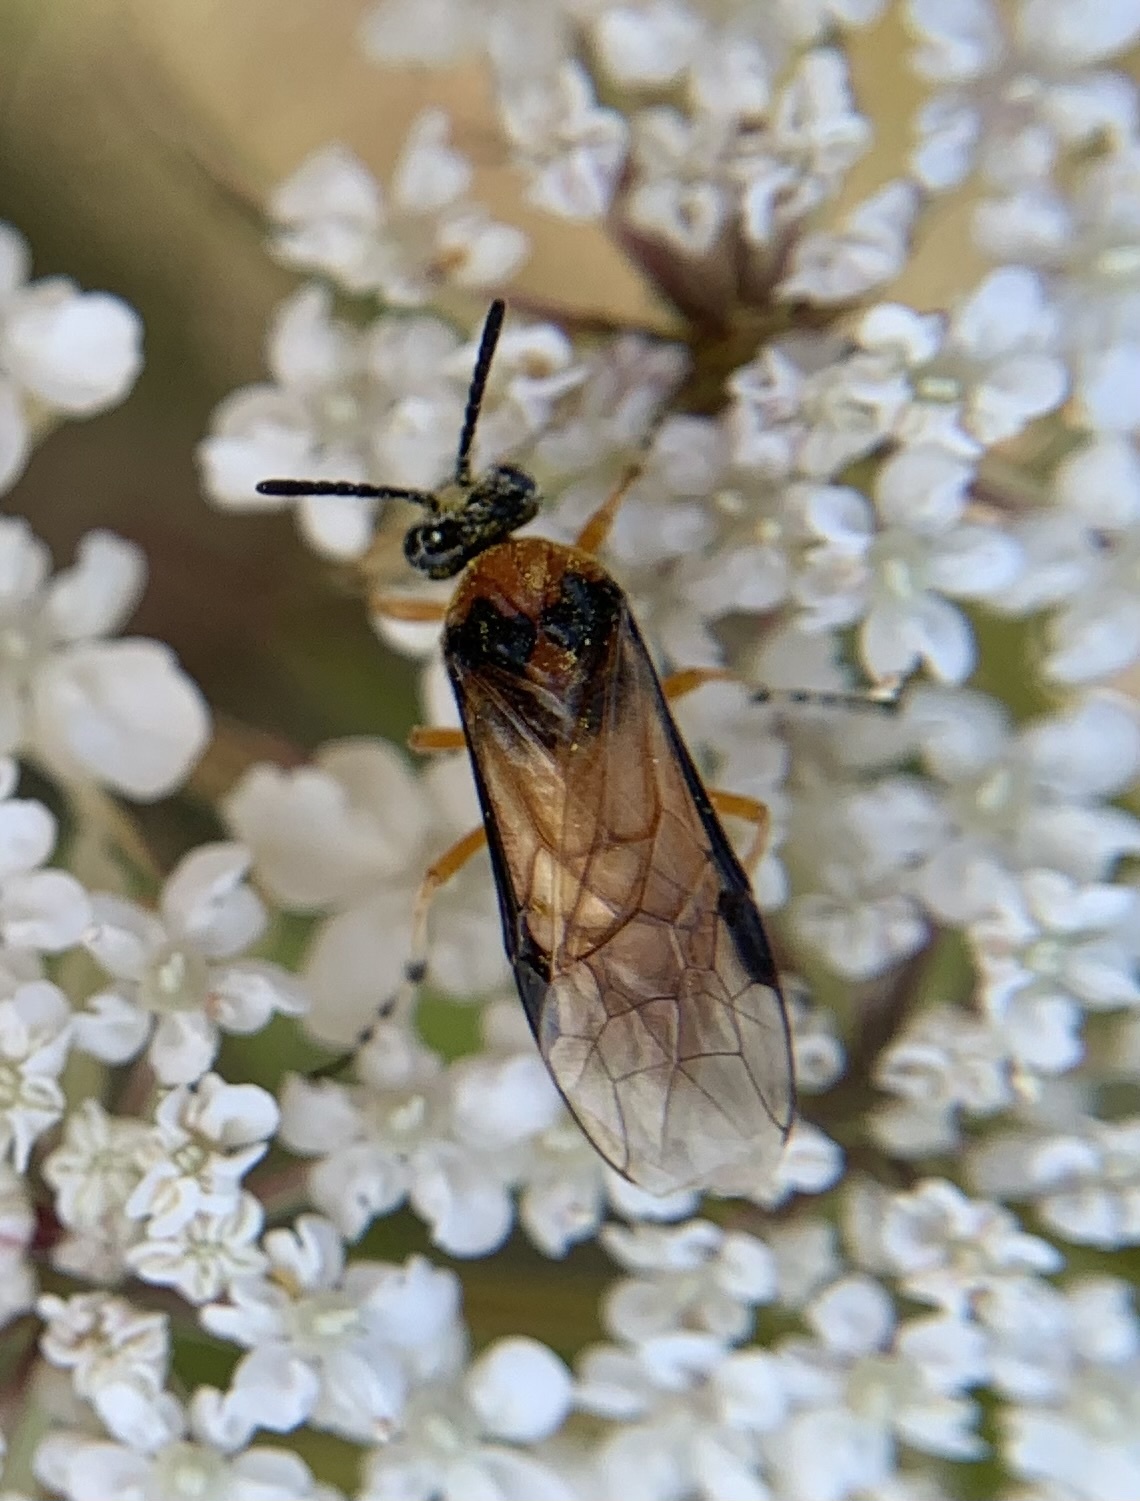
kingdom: Animalia
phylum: Arthropoda
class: Insecta
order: Hymenoptera
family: Tenthredinidae
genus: Athalia
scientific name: Athalia rosae
